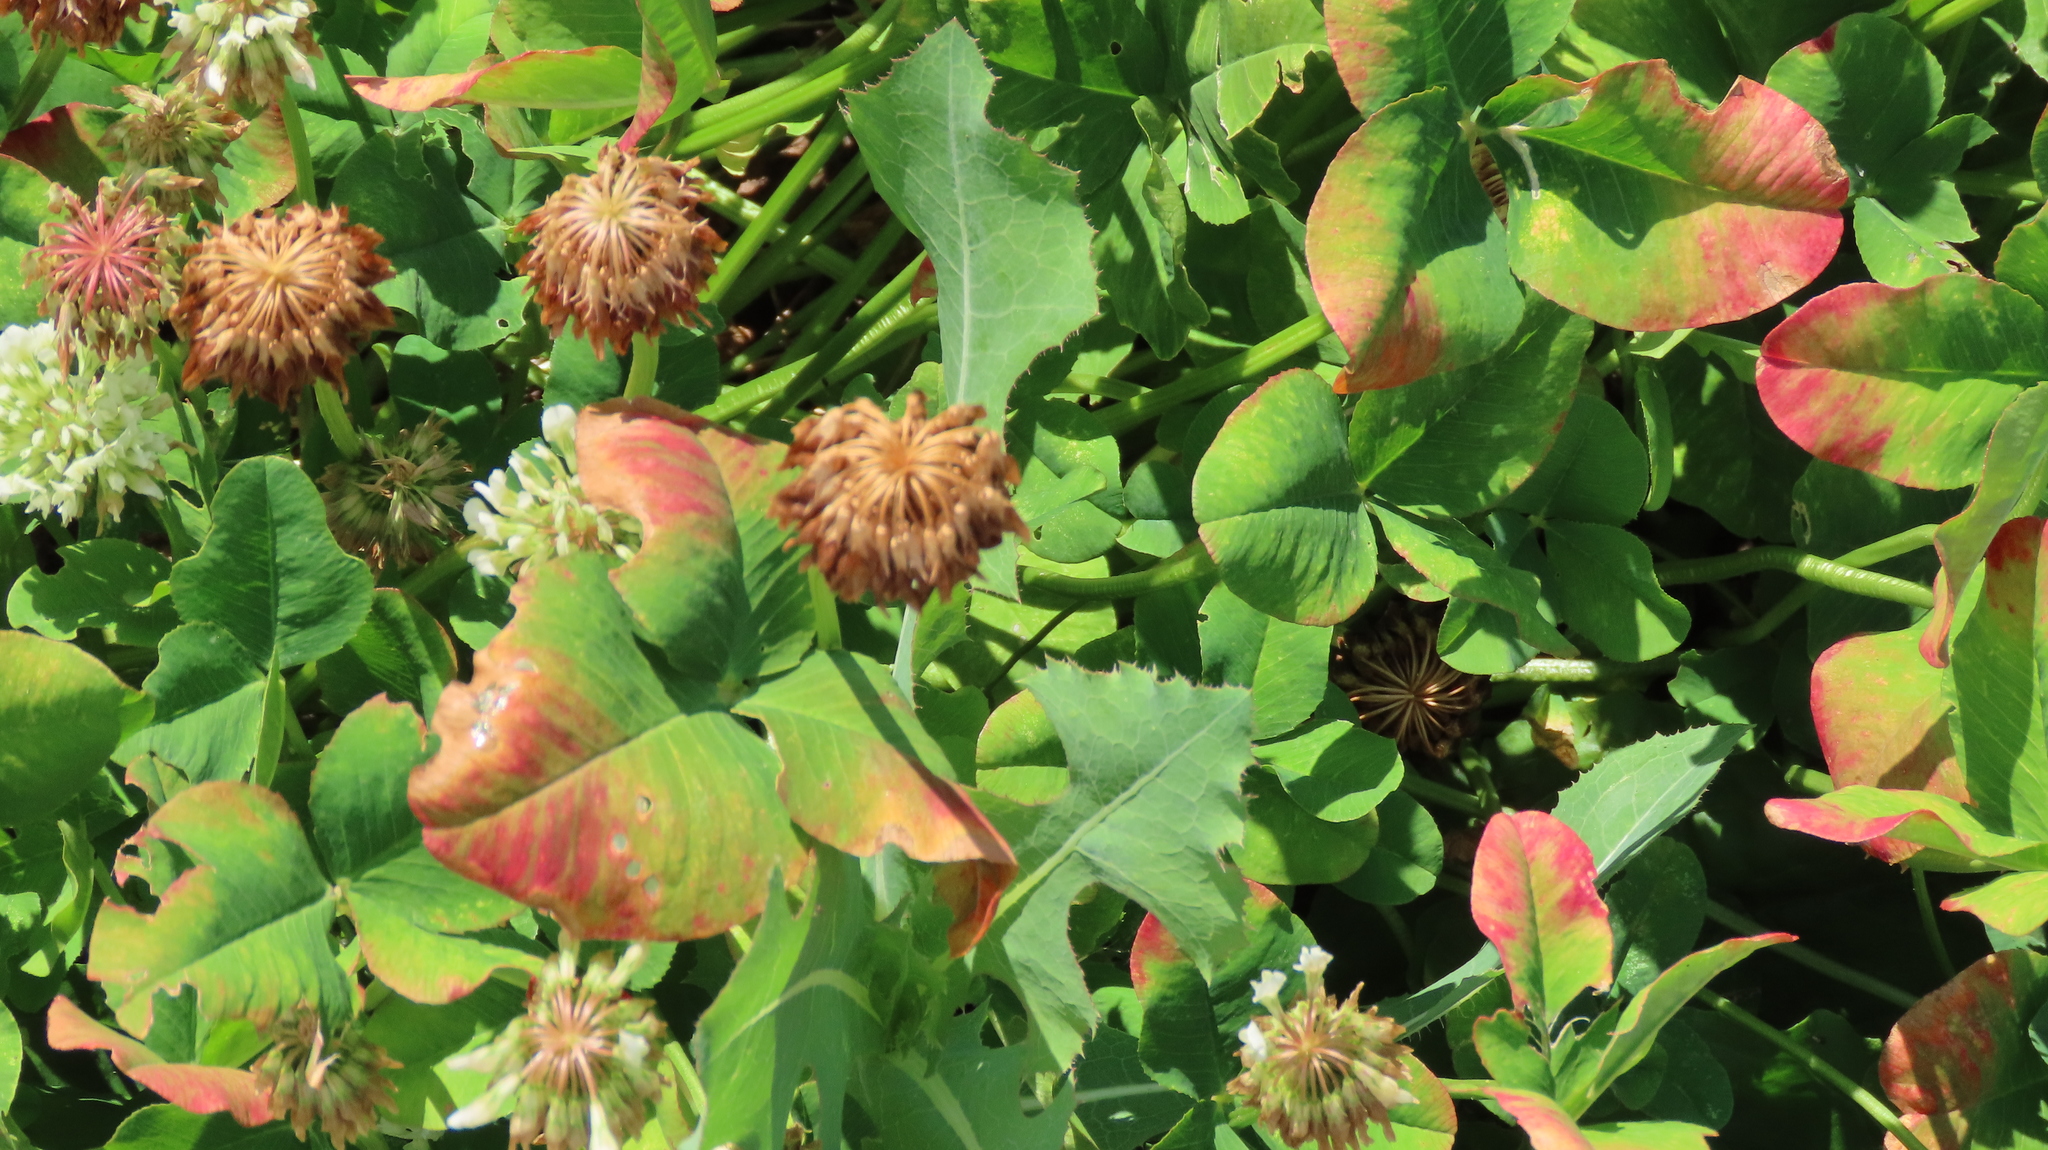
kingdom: Plantae
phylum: Tracheophyta
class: Magnoliopsida
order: Fabales
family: Fabaceae
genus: Trifolium
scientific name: Trifolium repens
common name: White clover
